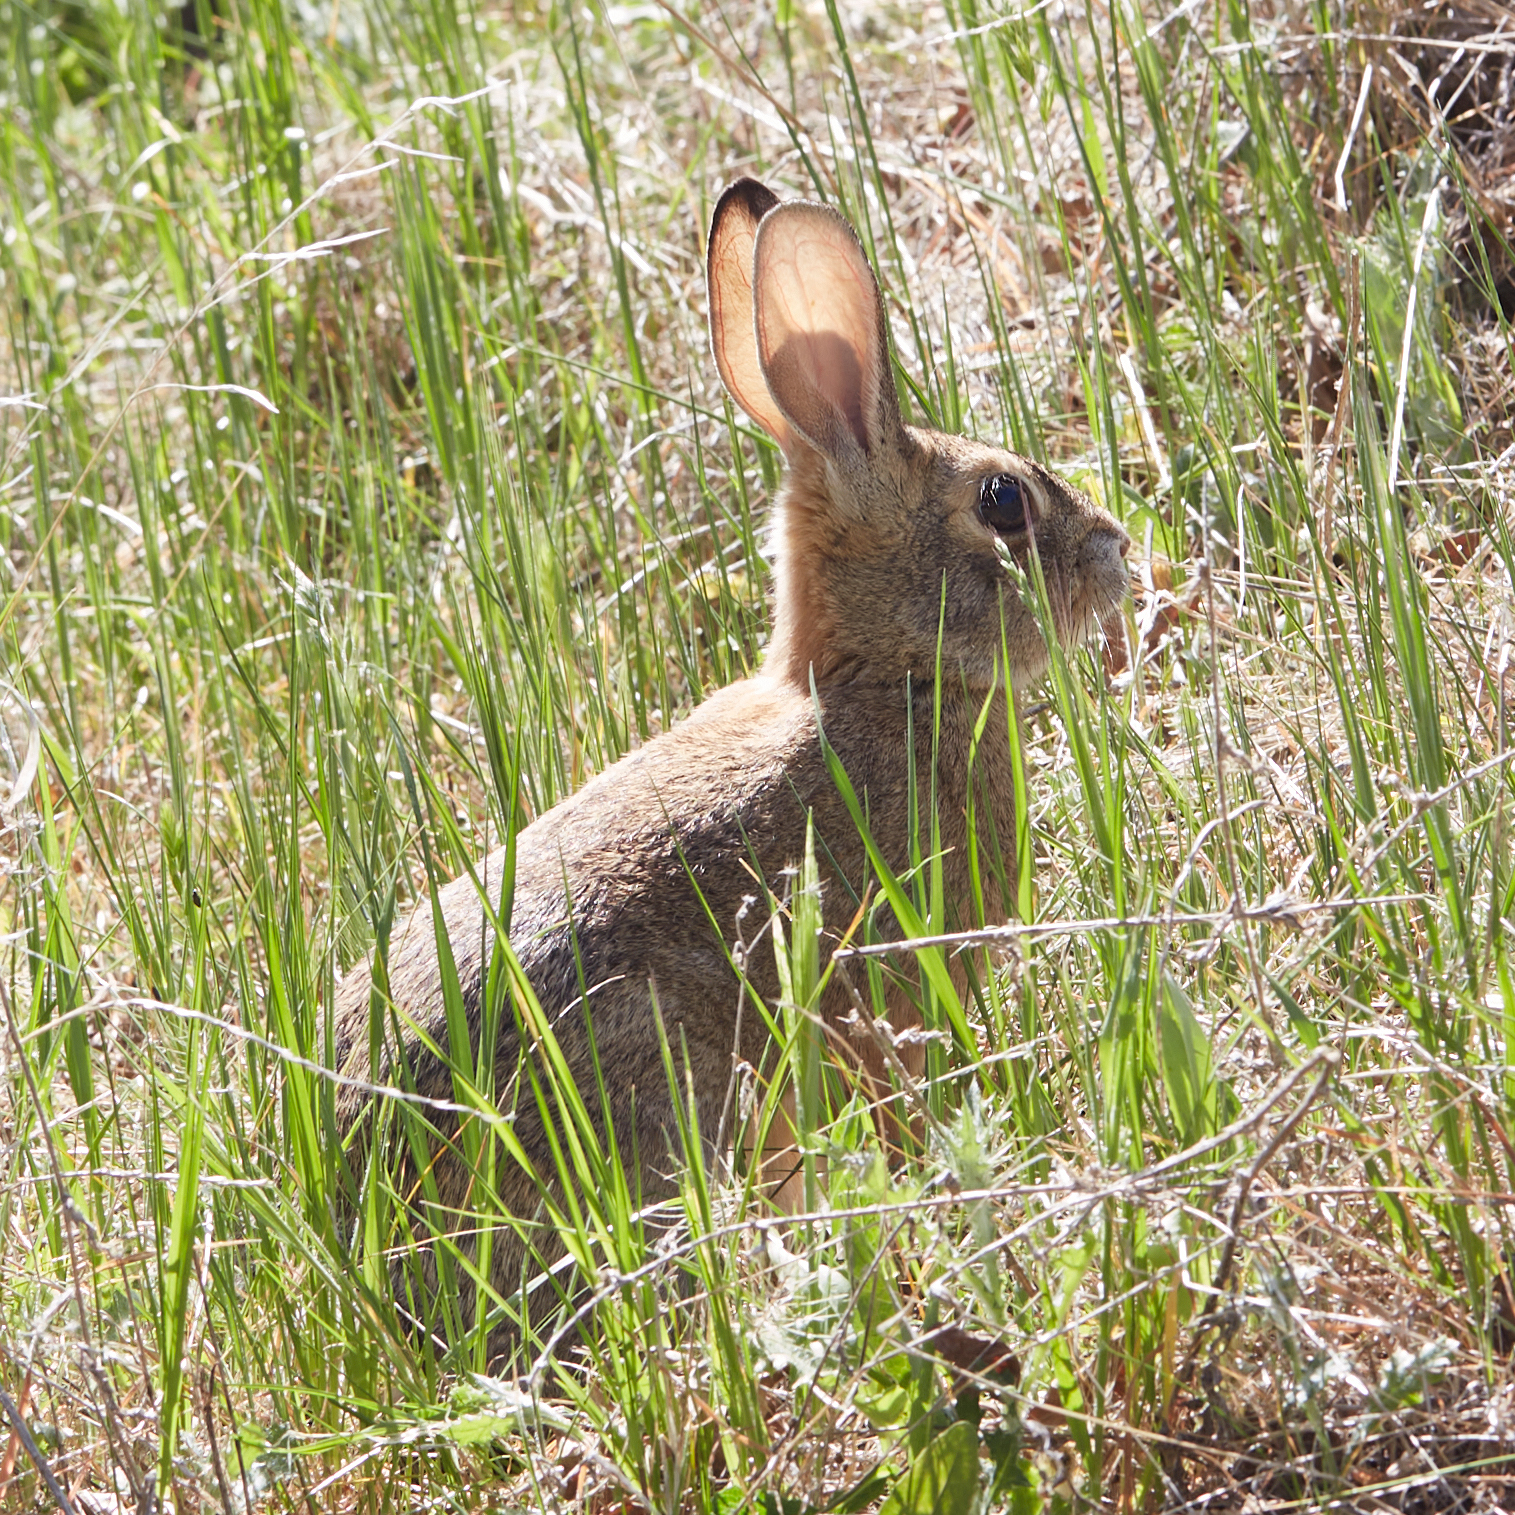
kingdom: Animalia
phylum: Chordata
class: Mammalia
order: Lagomorpha
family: Leporidae
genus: Sylvilagus
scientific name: Sylvilagus audubonii
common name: Desert cottontail
